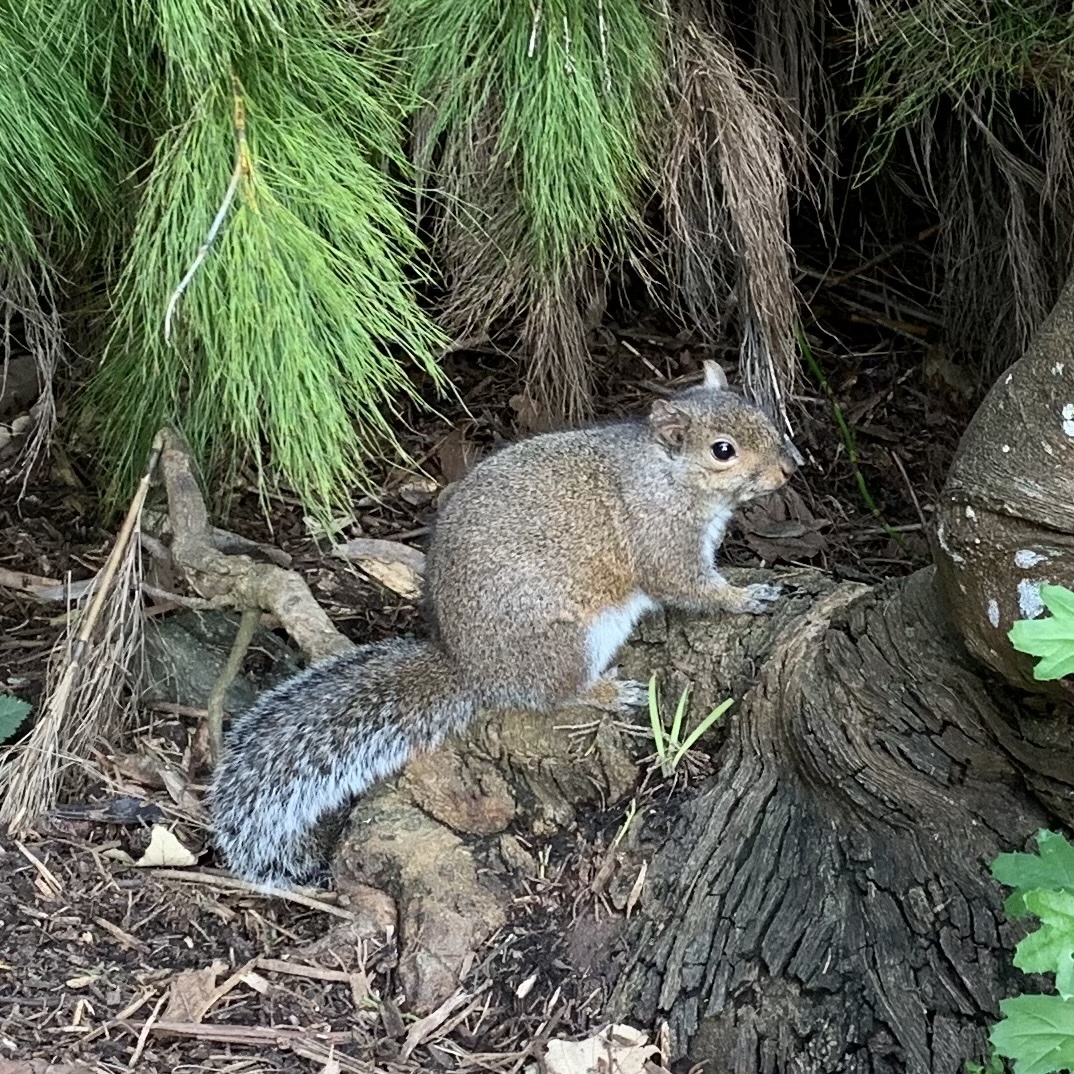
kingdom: Animalia
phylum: Chordata
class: Mammalia
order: Rodentia
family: Sciuridae
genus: Sciurus
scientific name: Sciurus carolinensis
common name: Eastern gray squirrel
